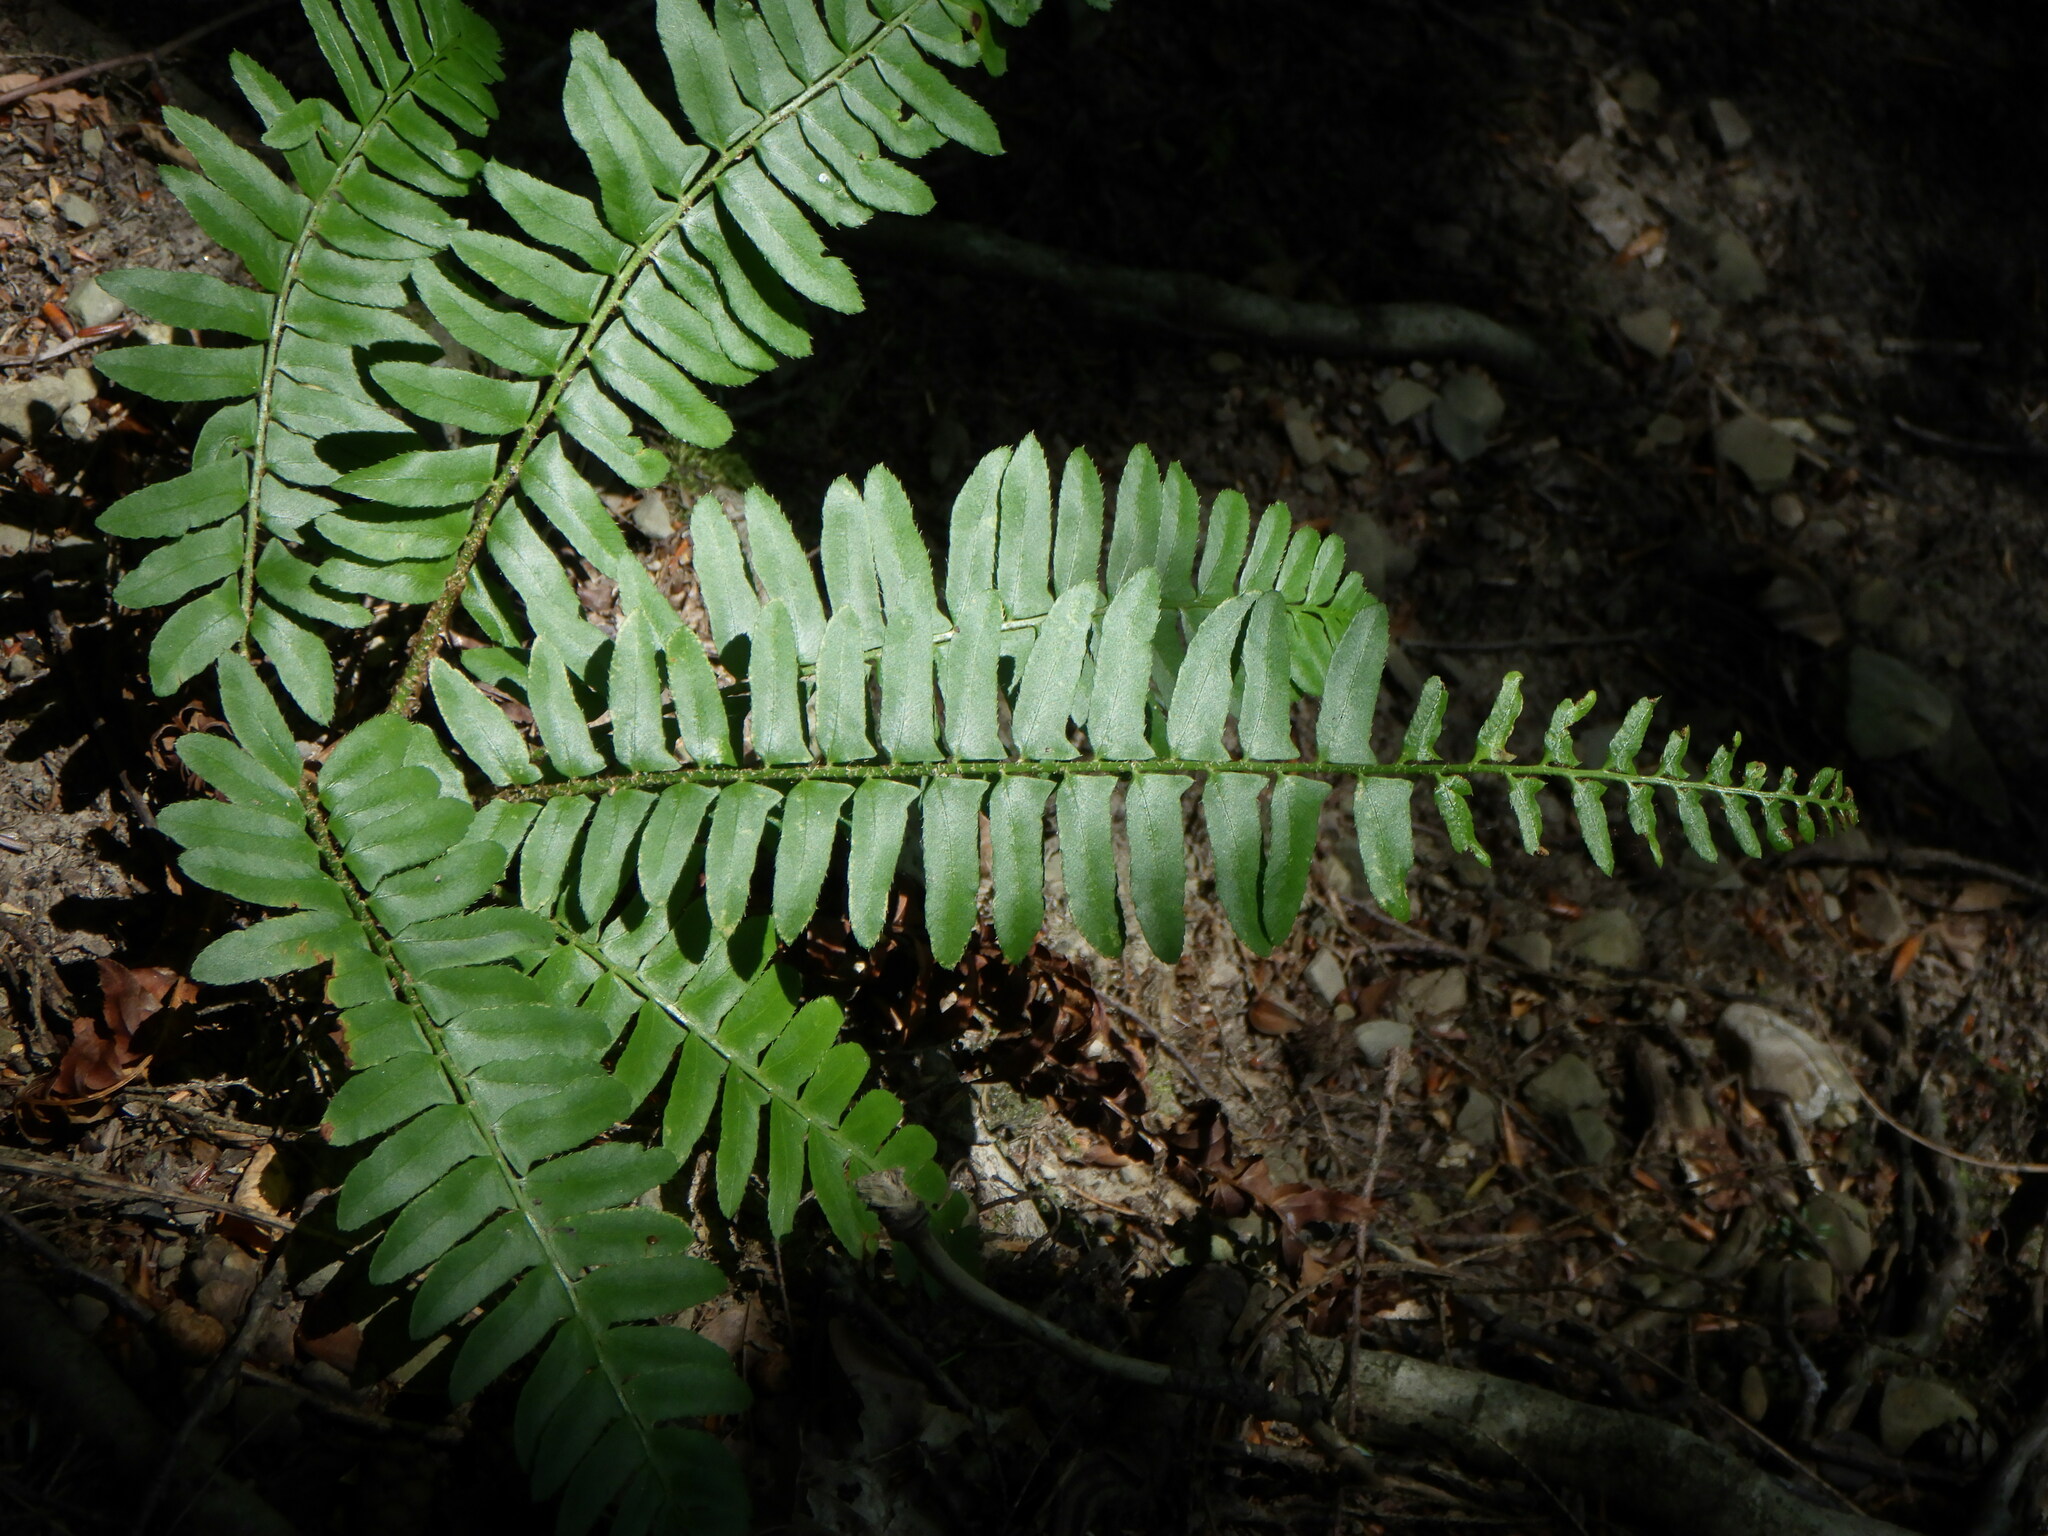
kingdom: Plantae
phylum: Tracheophyta
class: Polypodiopsida
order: Polypodiales
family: Dryopteridaceae
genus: Polystichum
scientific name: Polystichum acrostichoides
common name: Christmas fern
